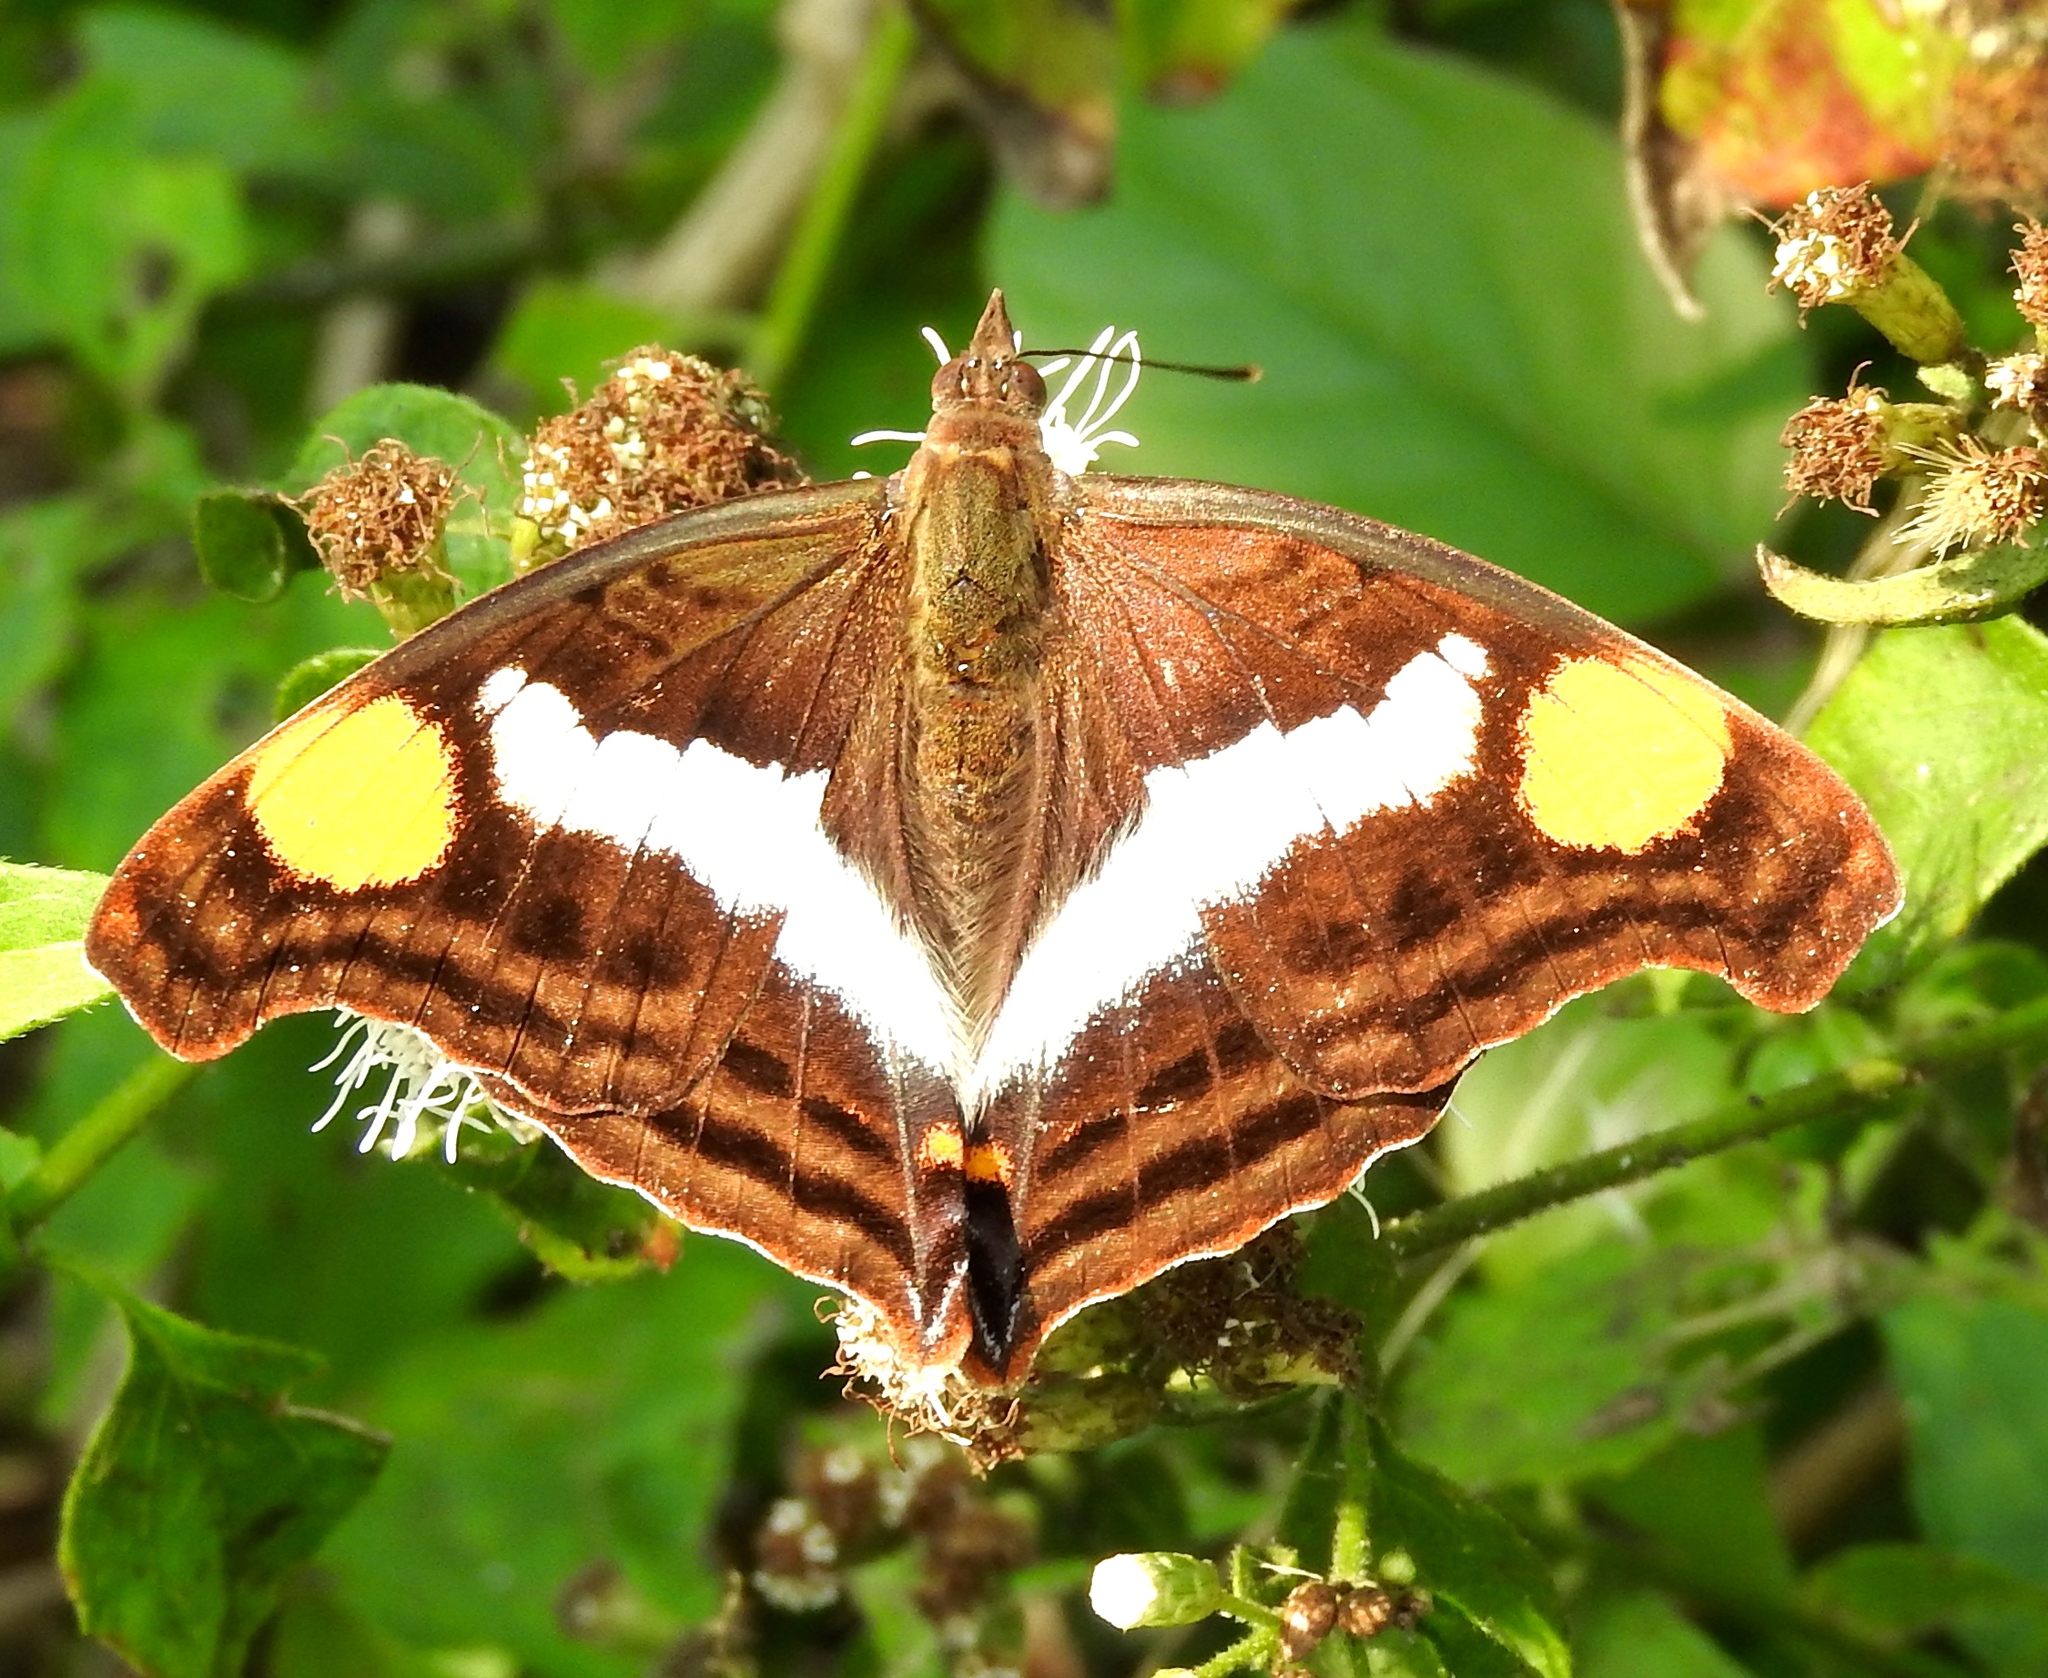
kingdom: Animalia
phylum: Arthropoda
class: Insecta
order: Lepidoptera
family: Nymphalidae
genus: Doxocopa
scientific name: Doxocopa laure
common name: Silver emperor
